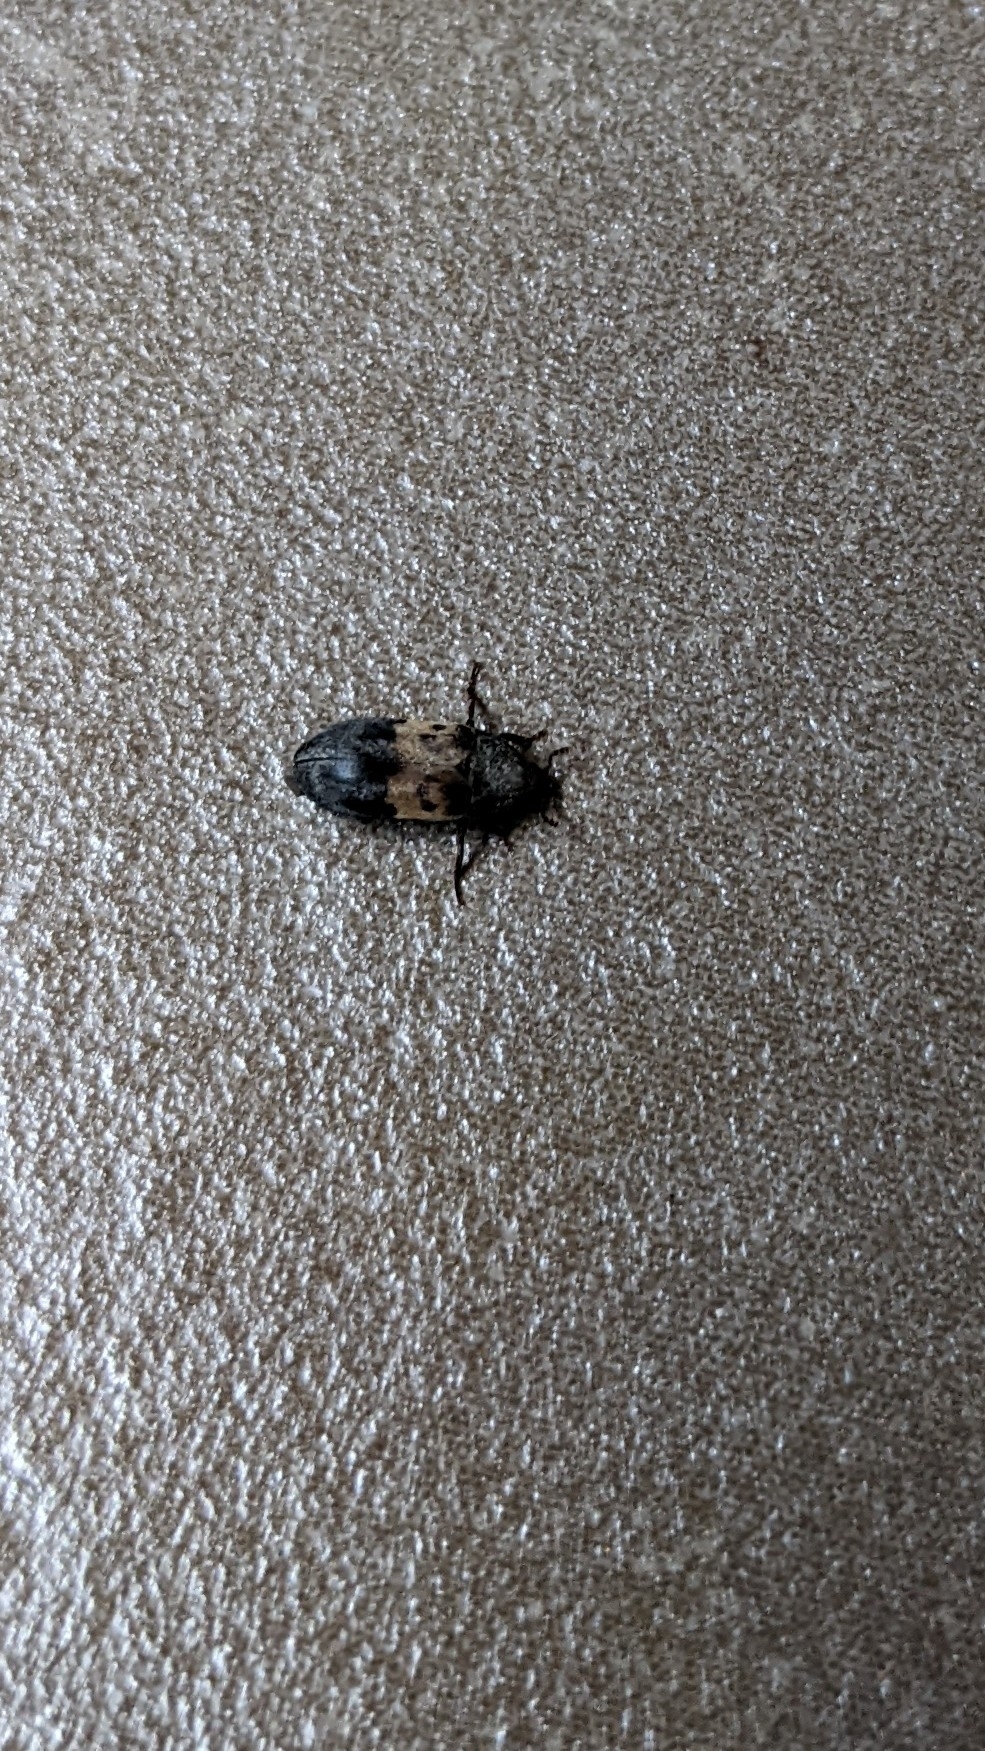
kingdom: Animalia
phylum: Arthropoda
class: Insecta
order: Coleoptera
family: Dermestidae
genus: Dermestes
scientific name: Dermestes lardarius
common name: Larder beetle
